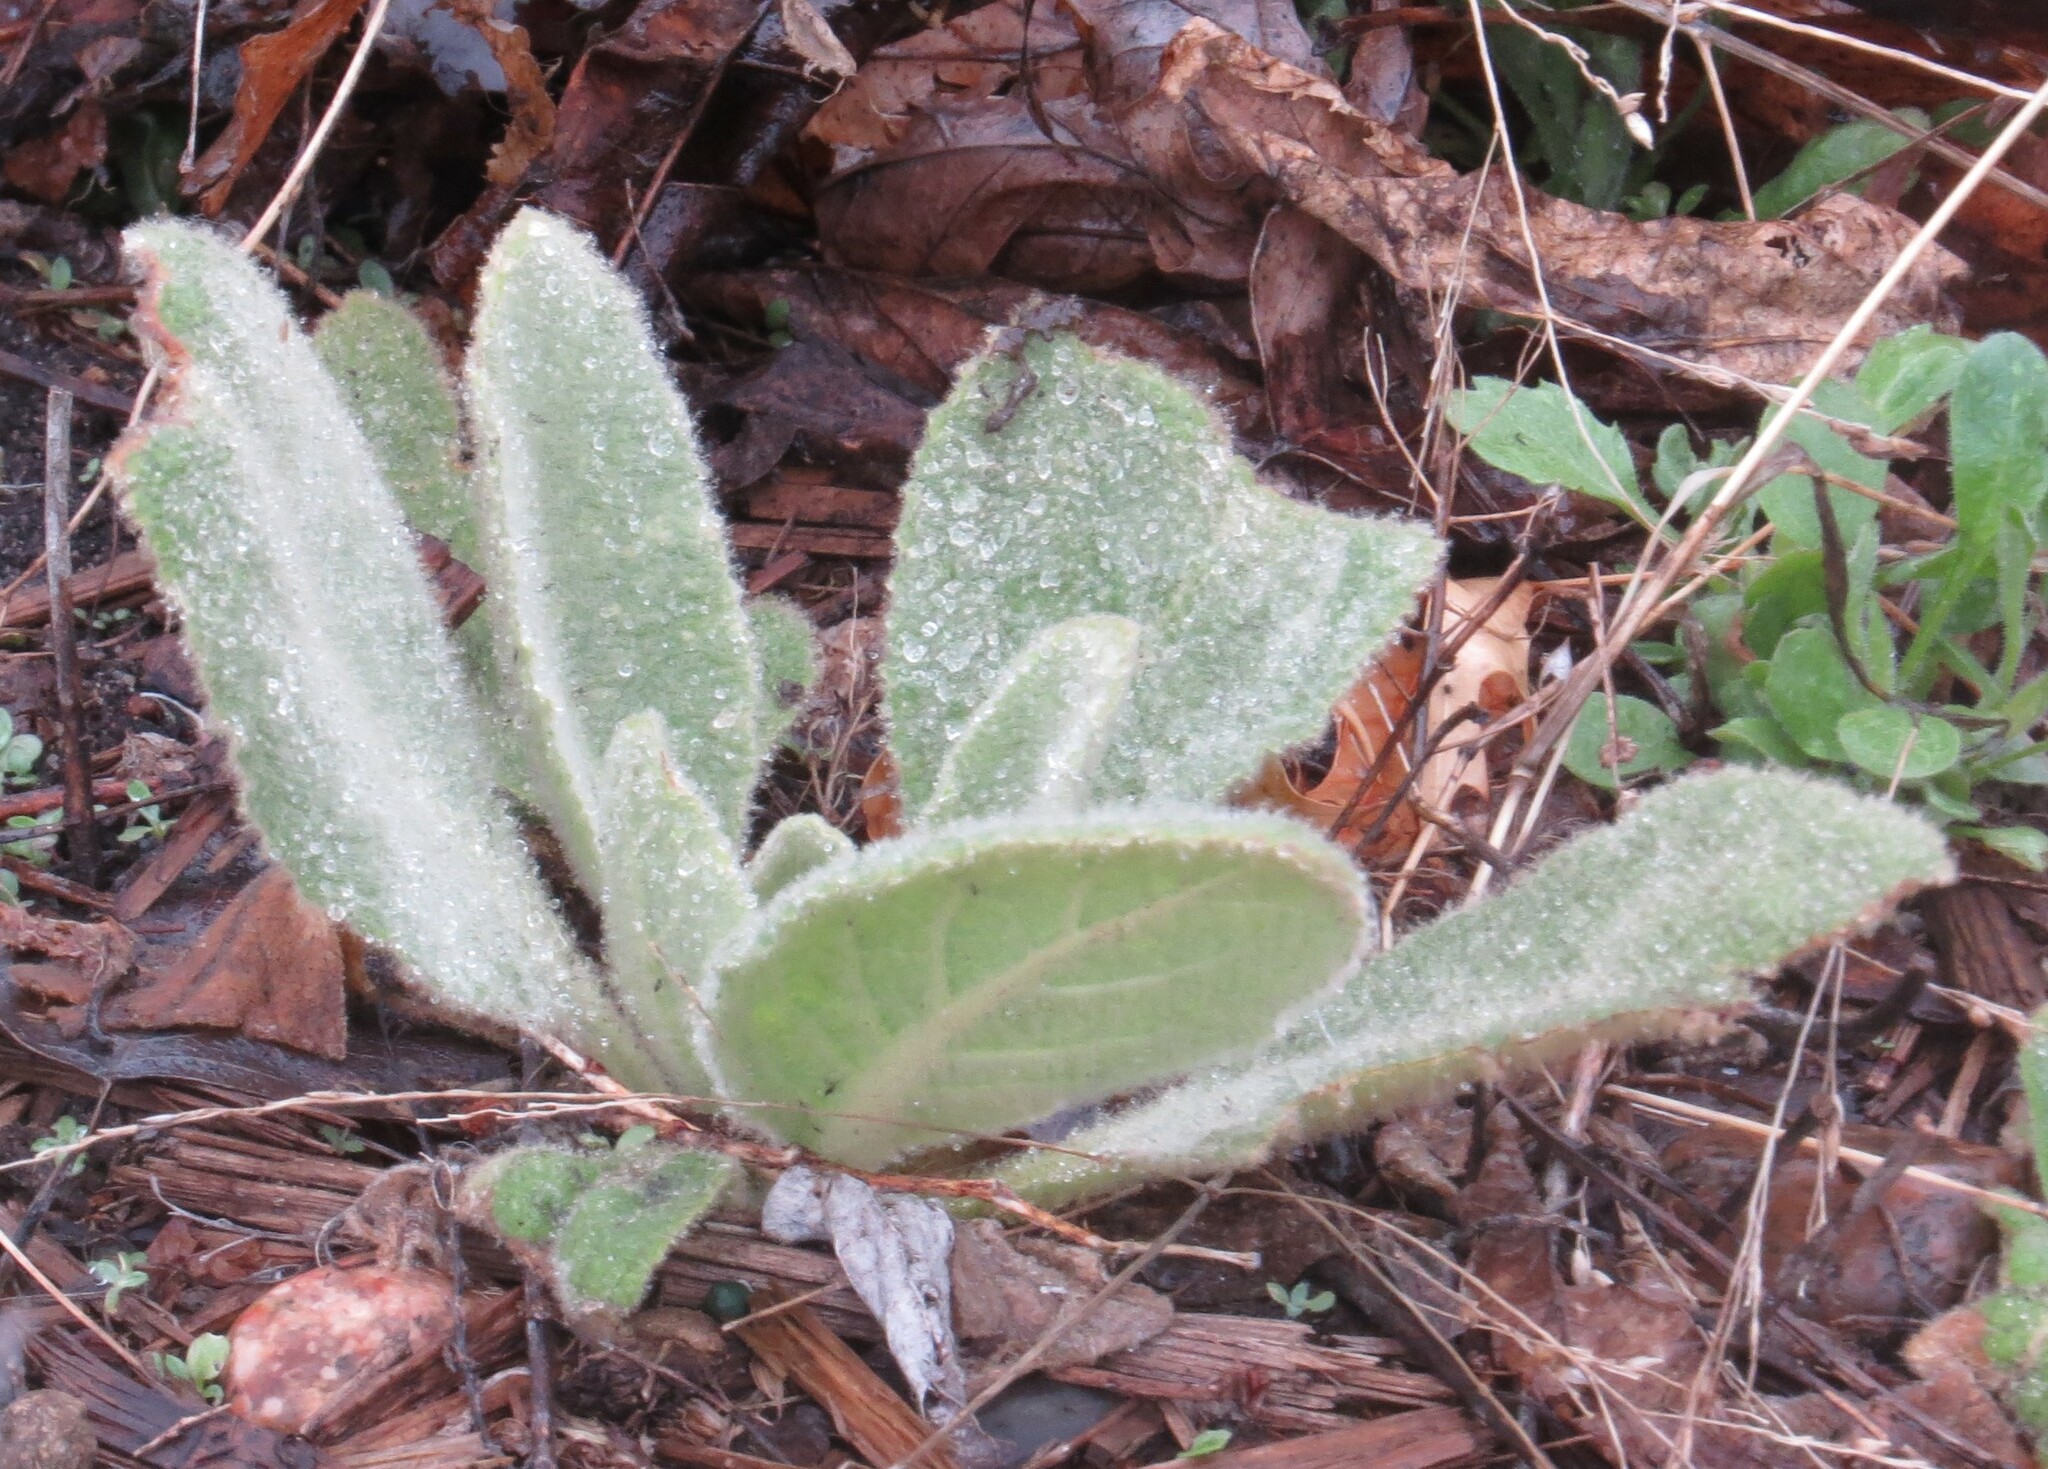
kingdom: Plantae
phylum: Tracheophyta
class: Magnoliopsida
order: Lamiales
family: Scrophulariaceae
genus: Verbascum
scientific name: Verbascum thapsus
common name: Common mullein
